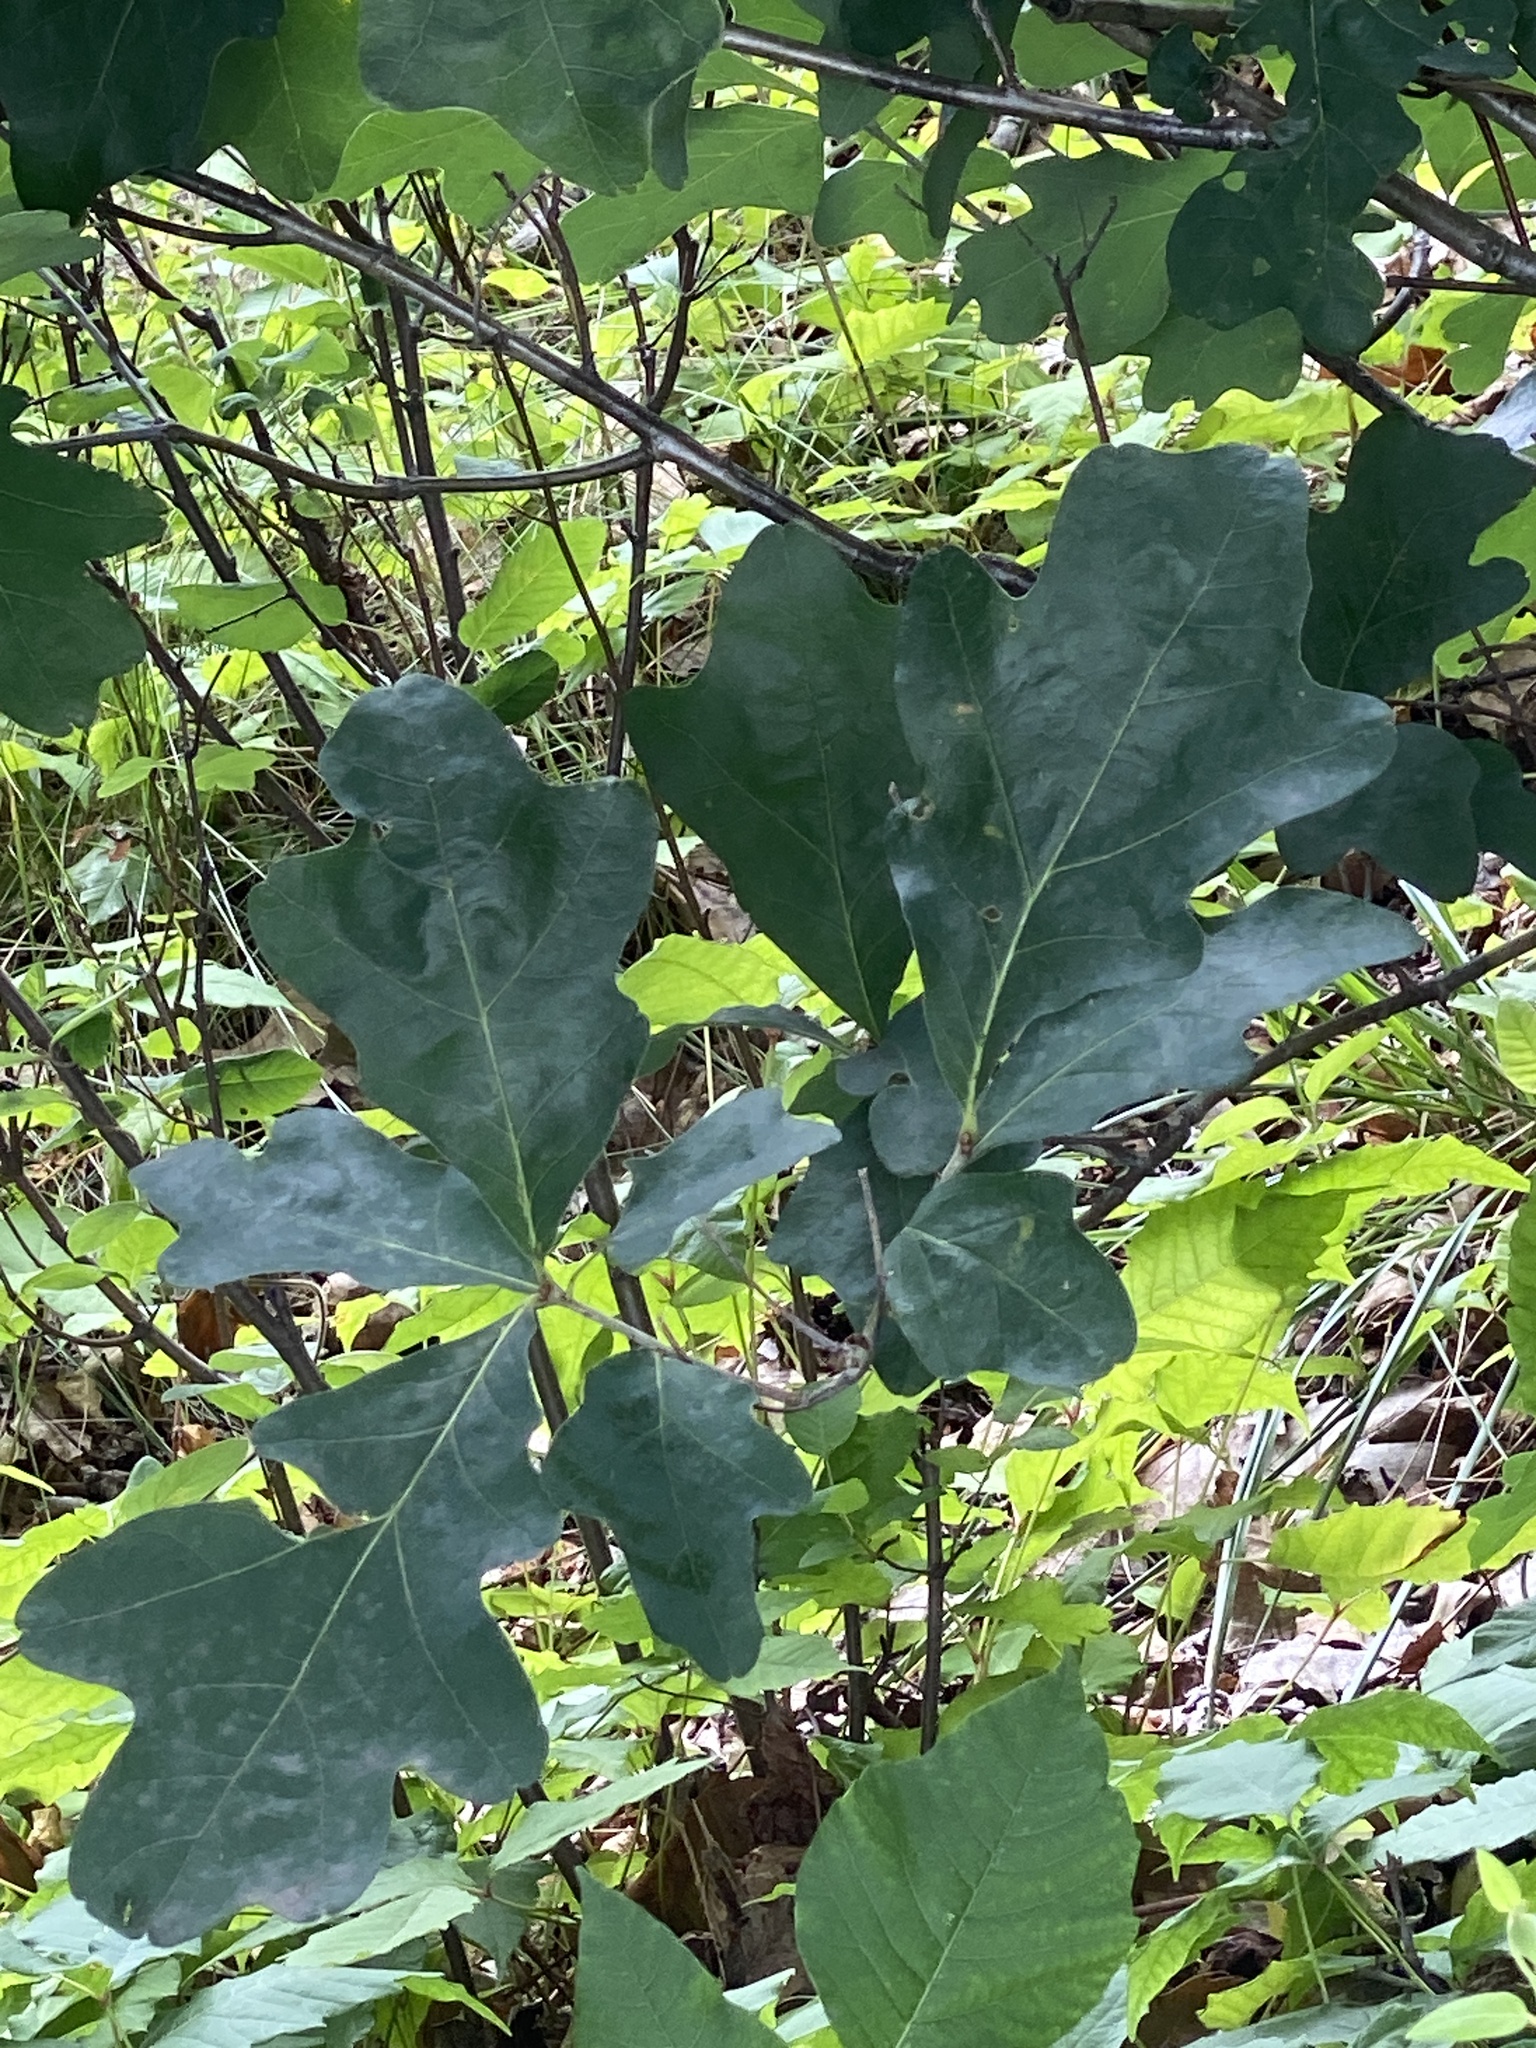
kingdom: Plantae
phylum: Tracheophyta
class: Magnoliopsida
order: Fagales
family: Fagaceae
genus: Quercus
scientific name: Quercus alba
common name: White oak
